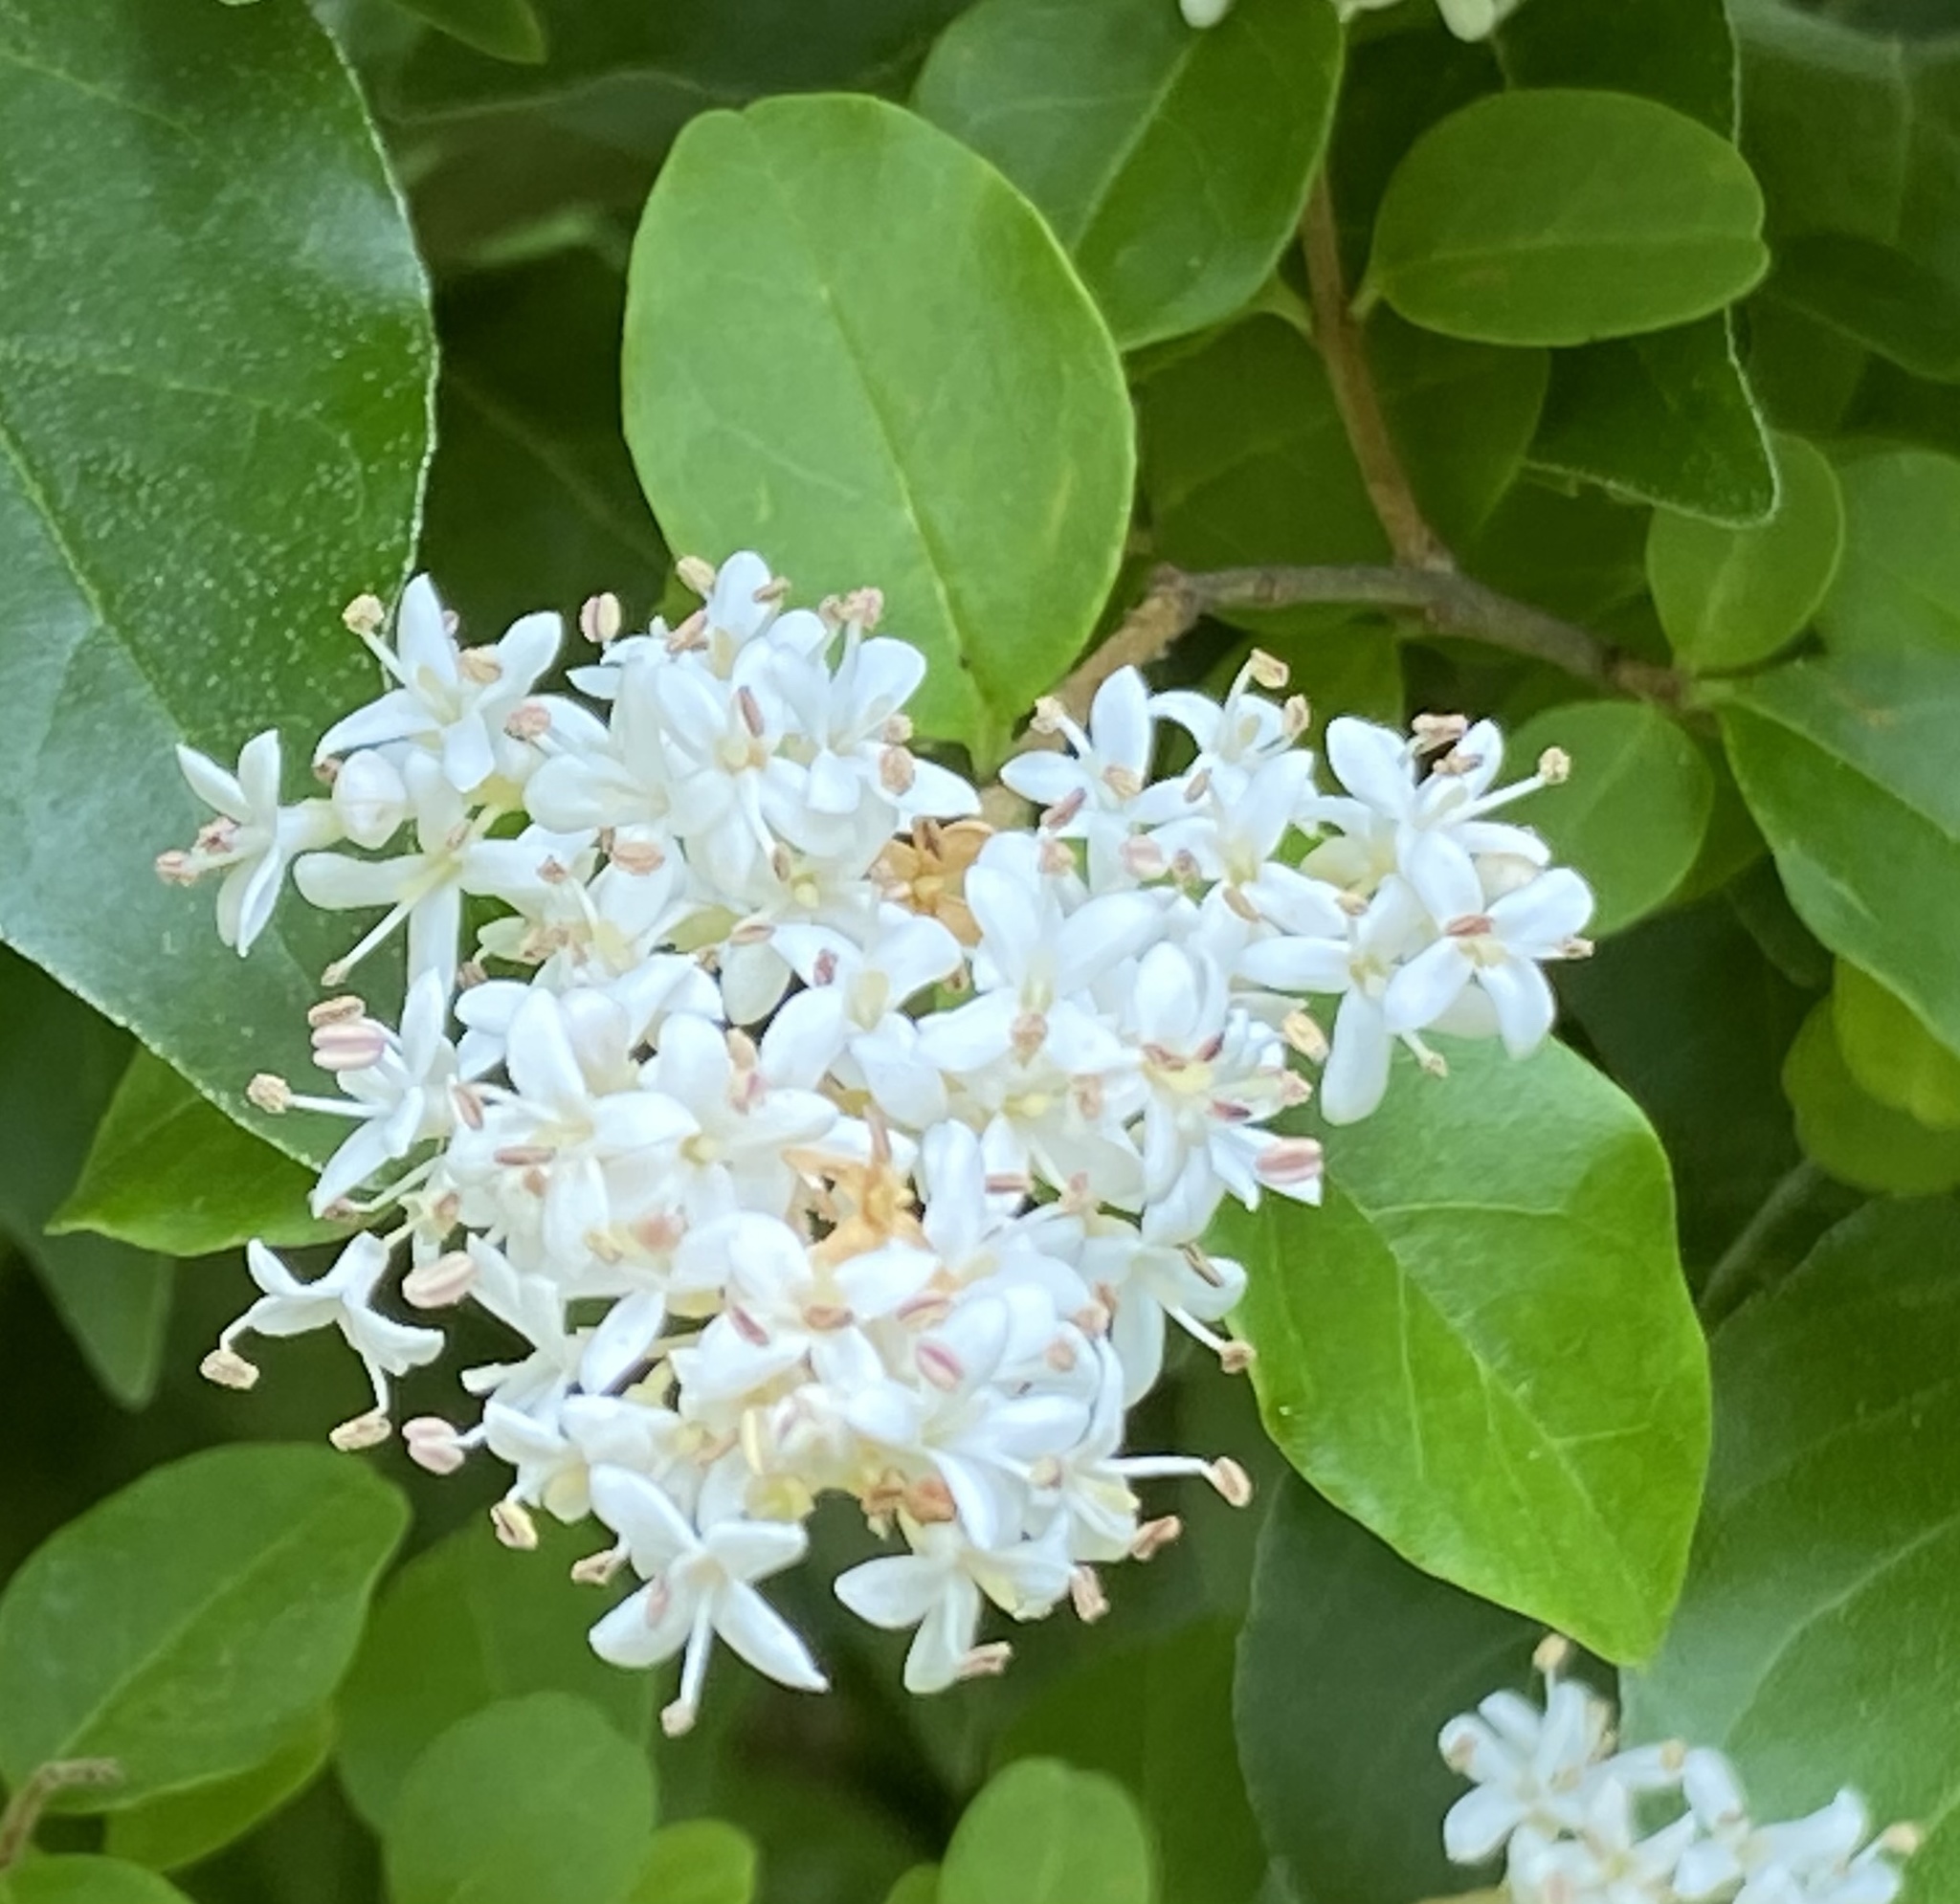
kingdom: Plantae
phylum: Tracheophyta
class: Magnoliopsida
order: Lamiales
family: Oleaceae
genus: Ligustrum
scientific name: Ligustrum sinense
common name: Chinese privet
